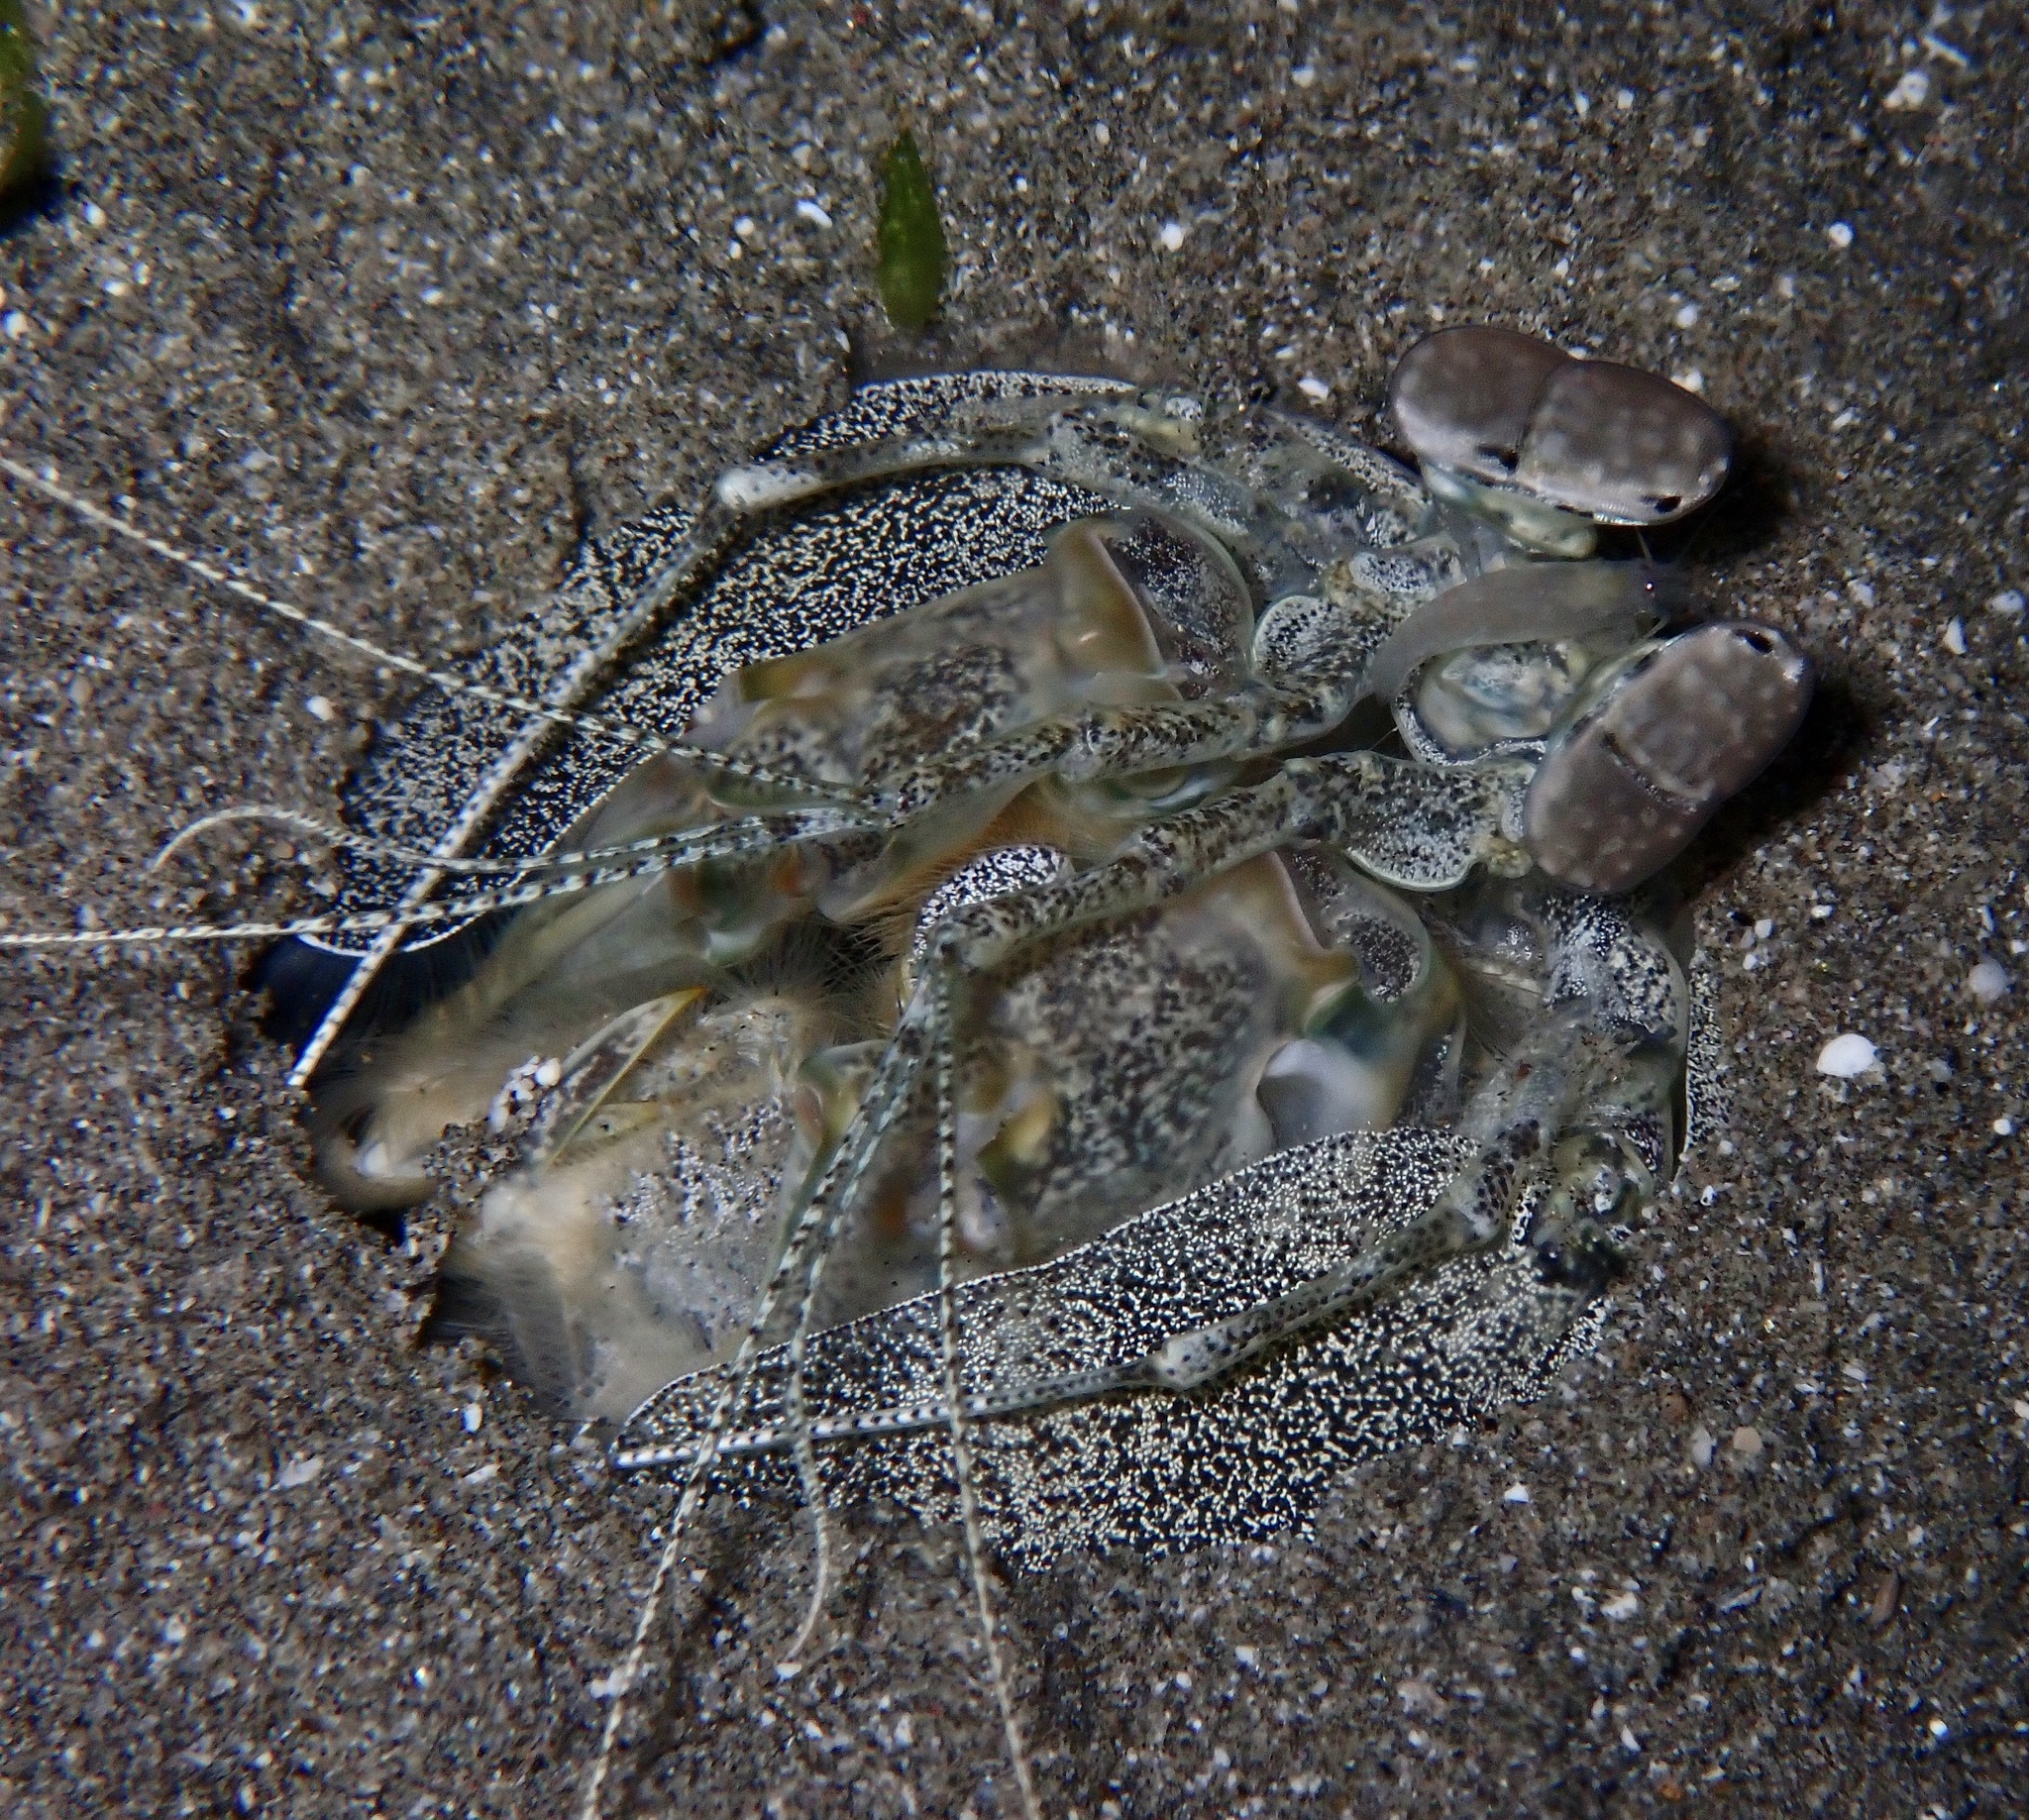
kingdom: Animalia
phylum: Arthropoda
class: Malacostraca
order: Stomatopoda
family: Lysiosquillidae
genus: Lysiosquilla
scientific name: Lysiosquilla maculata
